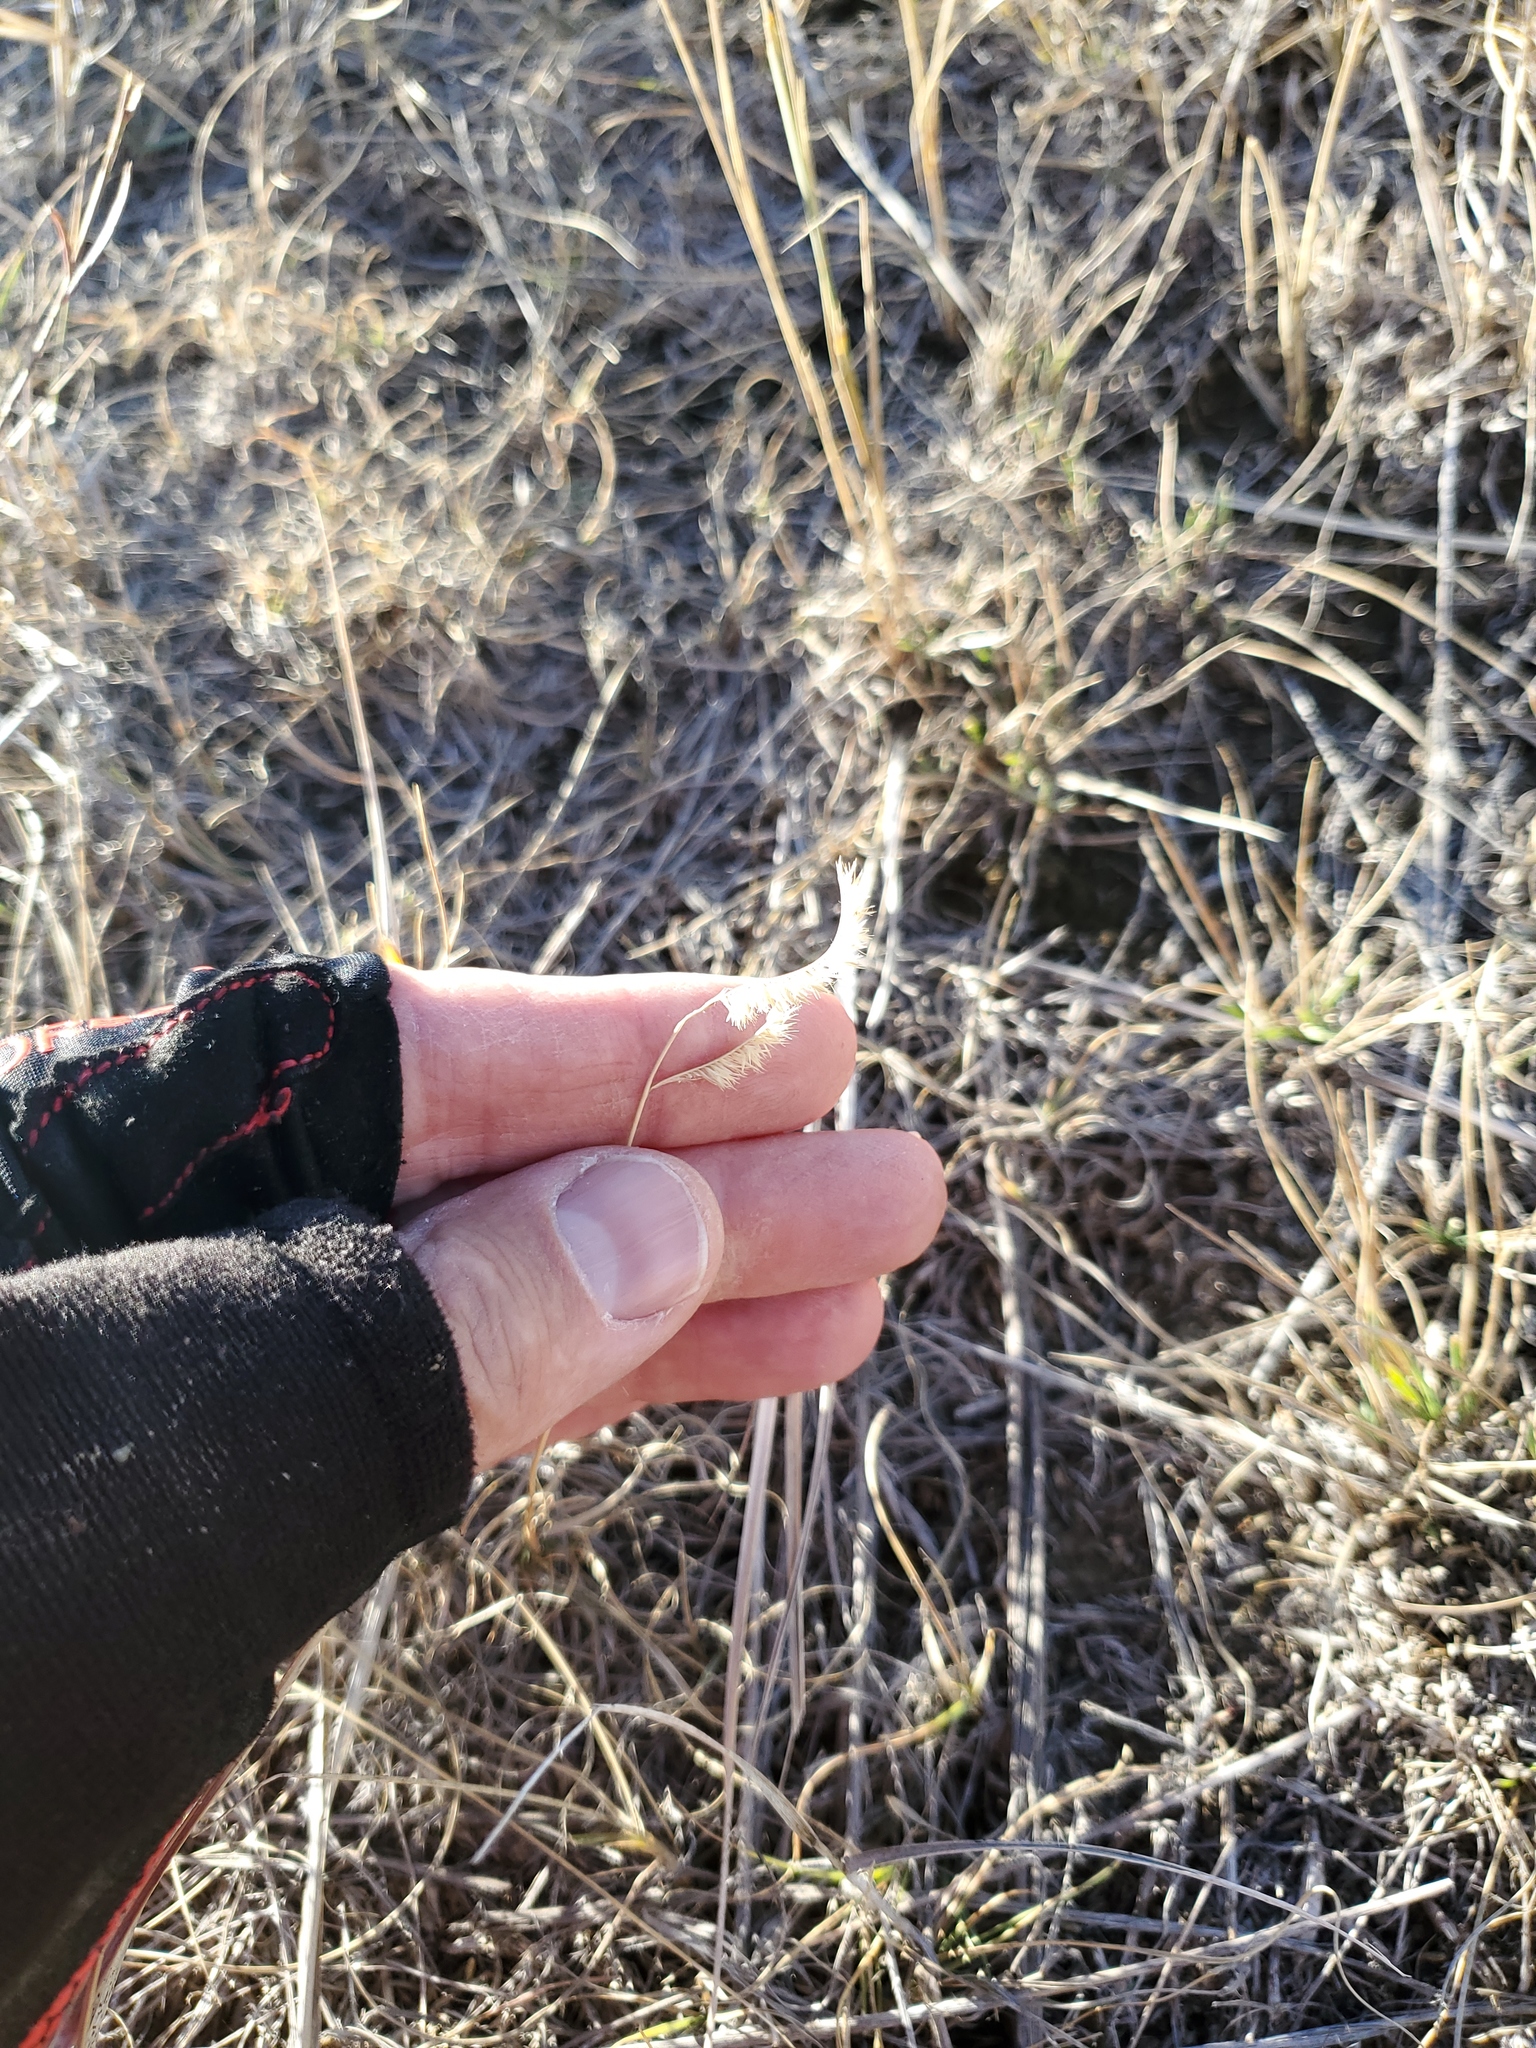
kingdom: Plantae
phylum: Tracheophyta
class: Liliopsida
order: Poales
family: Poaceae
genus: Bouteloua
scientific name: Bouteloua gracilis
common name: Blue grama
